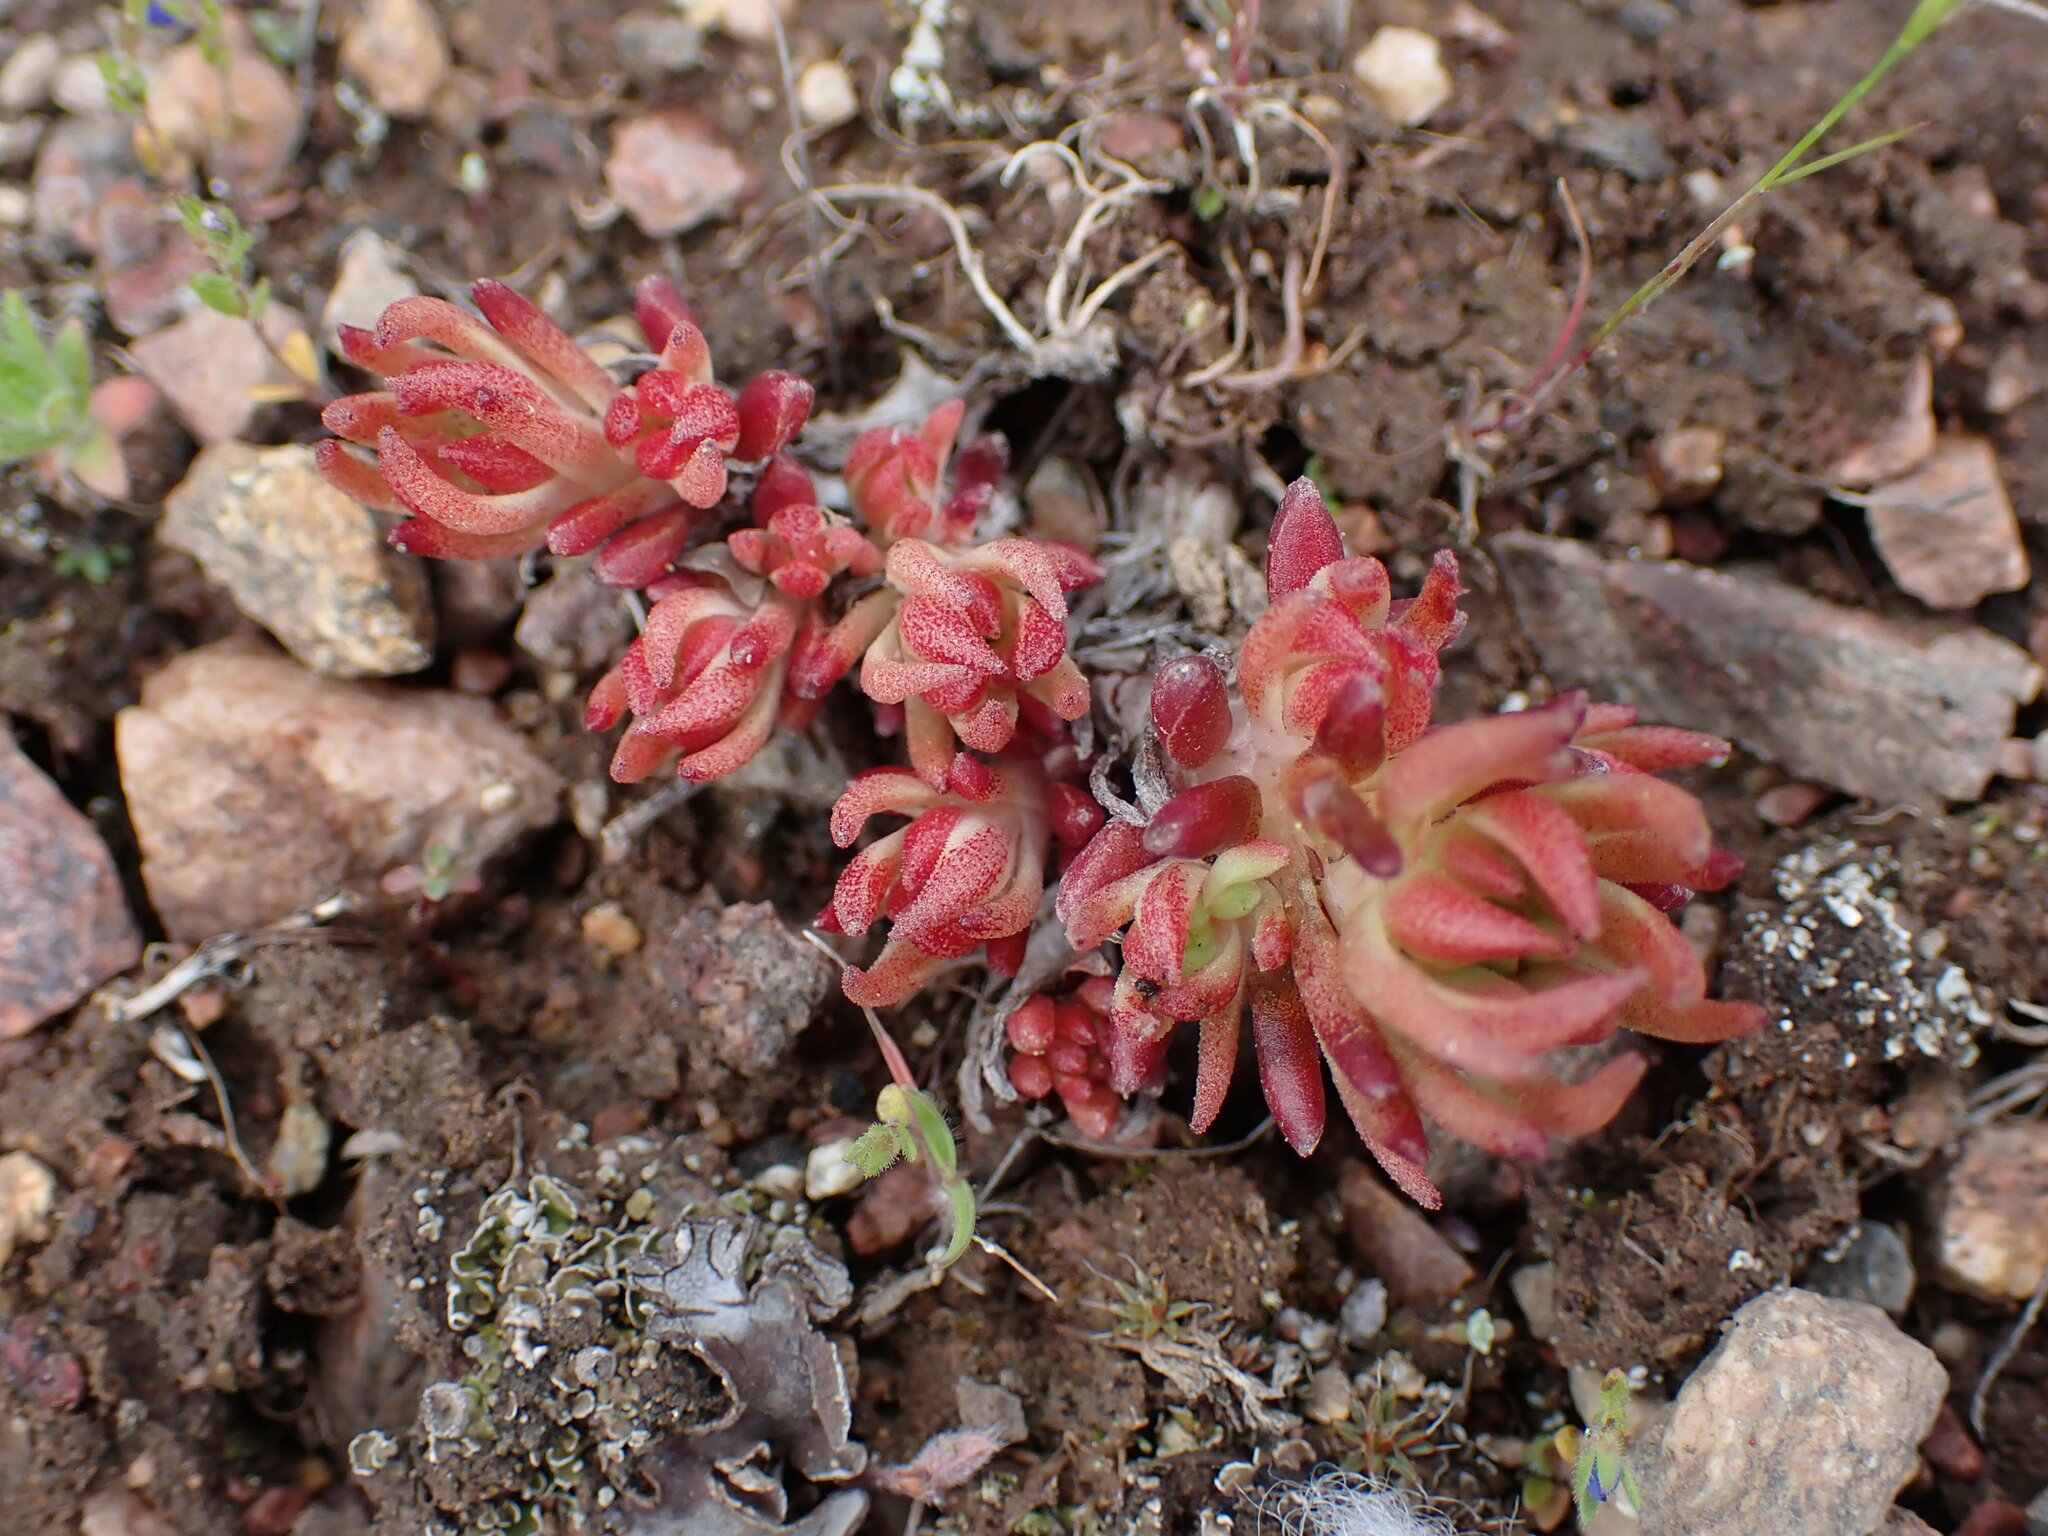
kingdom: Plantae
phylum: Tracheophyta
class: Magnoliopsida
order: Saxifragales
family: Crassulaceae
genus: Sedum
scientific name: Sedum stenopetalum
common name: Narrow-petaled stonecrop
